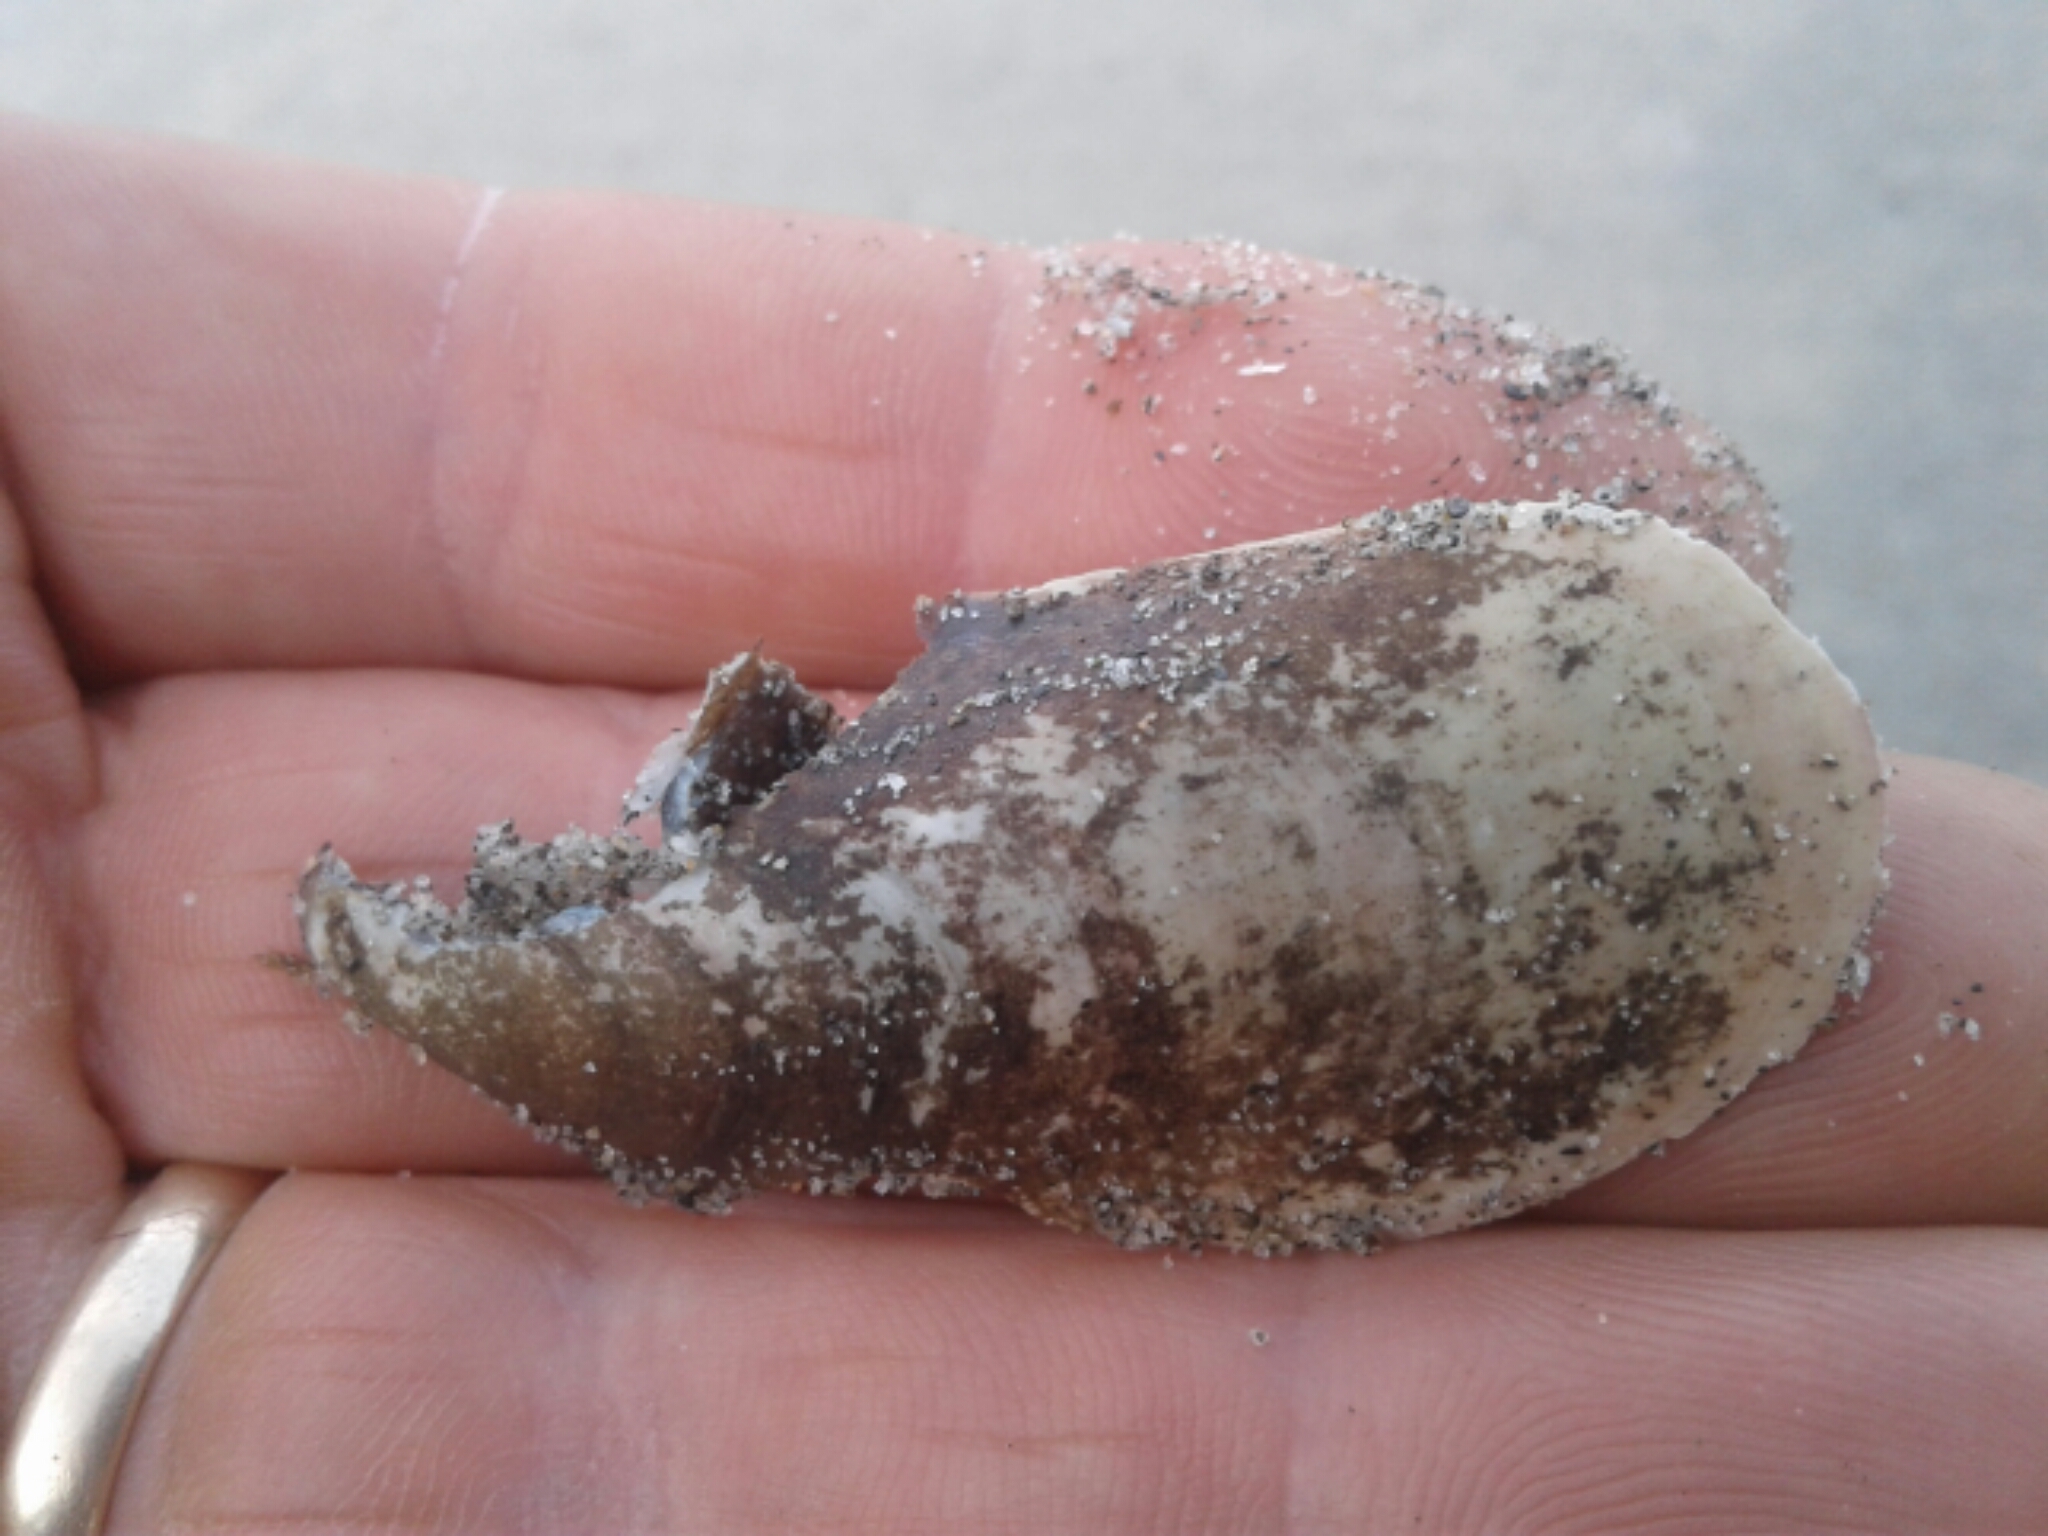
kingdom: Animalia
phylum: Mollusca
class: Bivalvia
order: Mytilida
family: Mytilidae
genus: Perna
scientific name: Perna canaliculus
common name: New zealand greenshelltm
